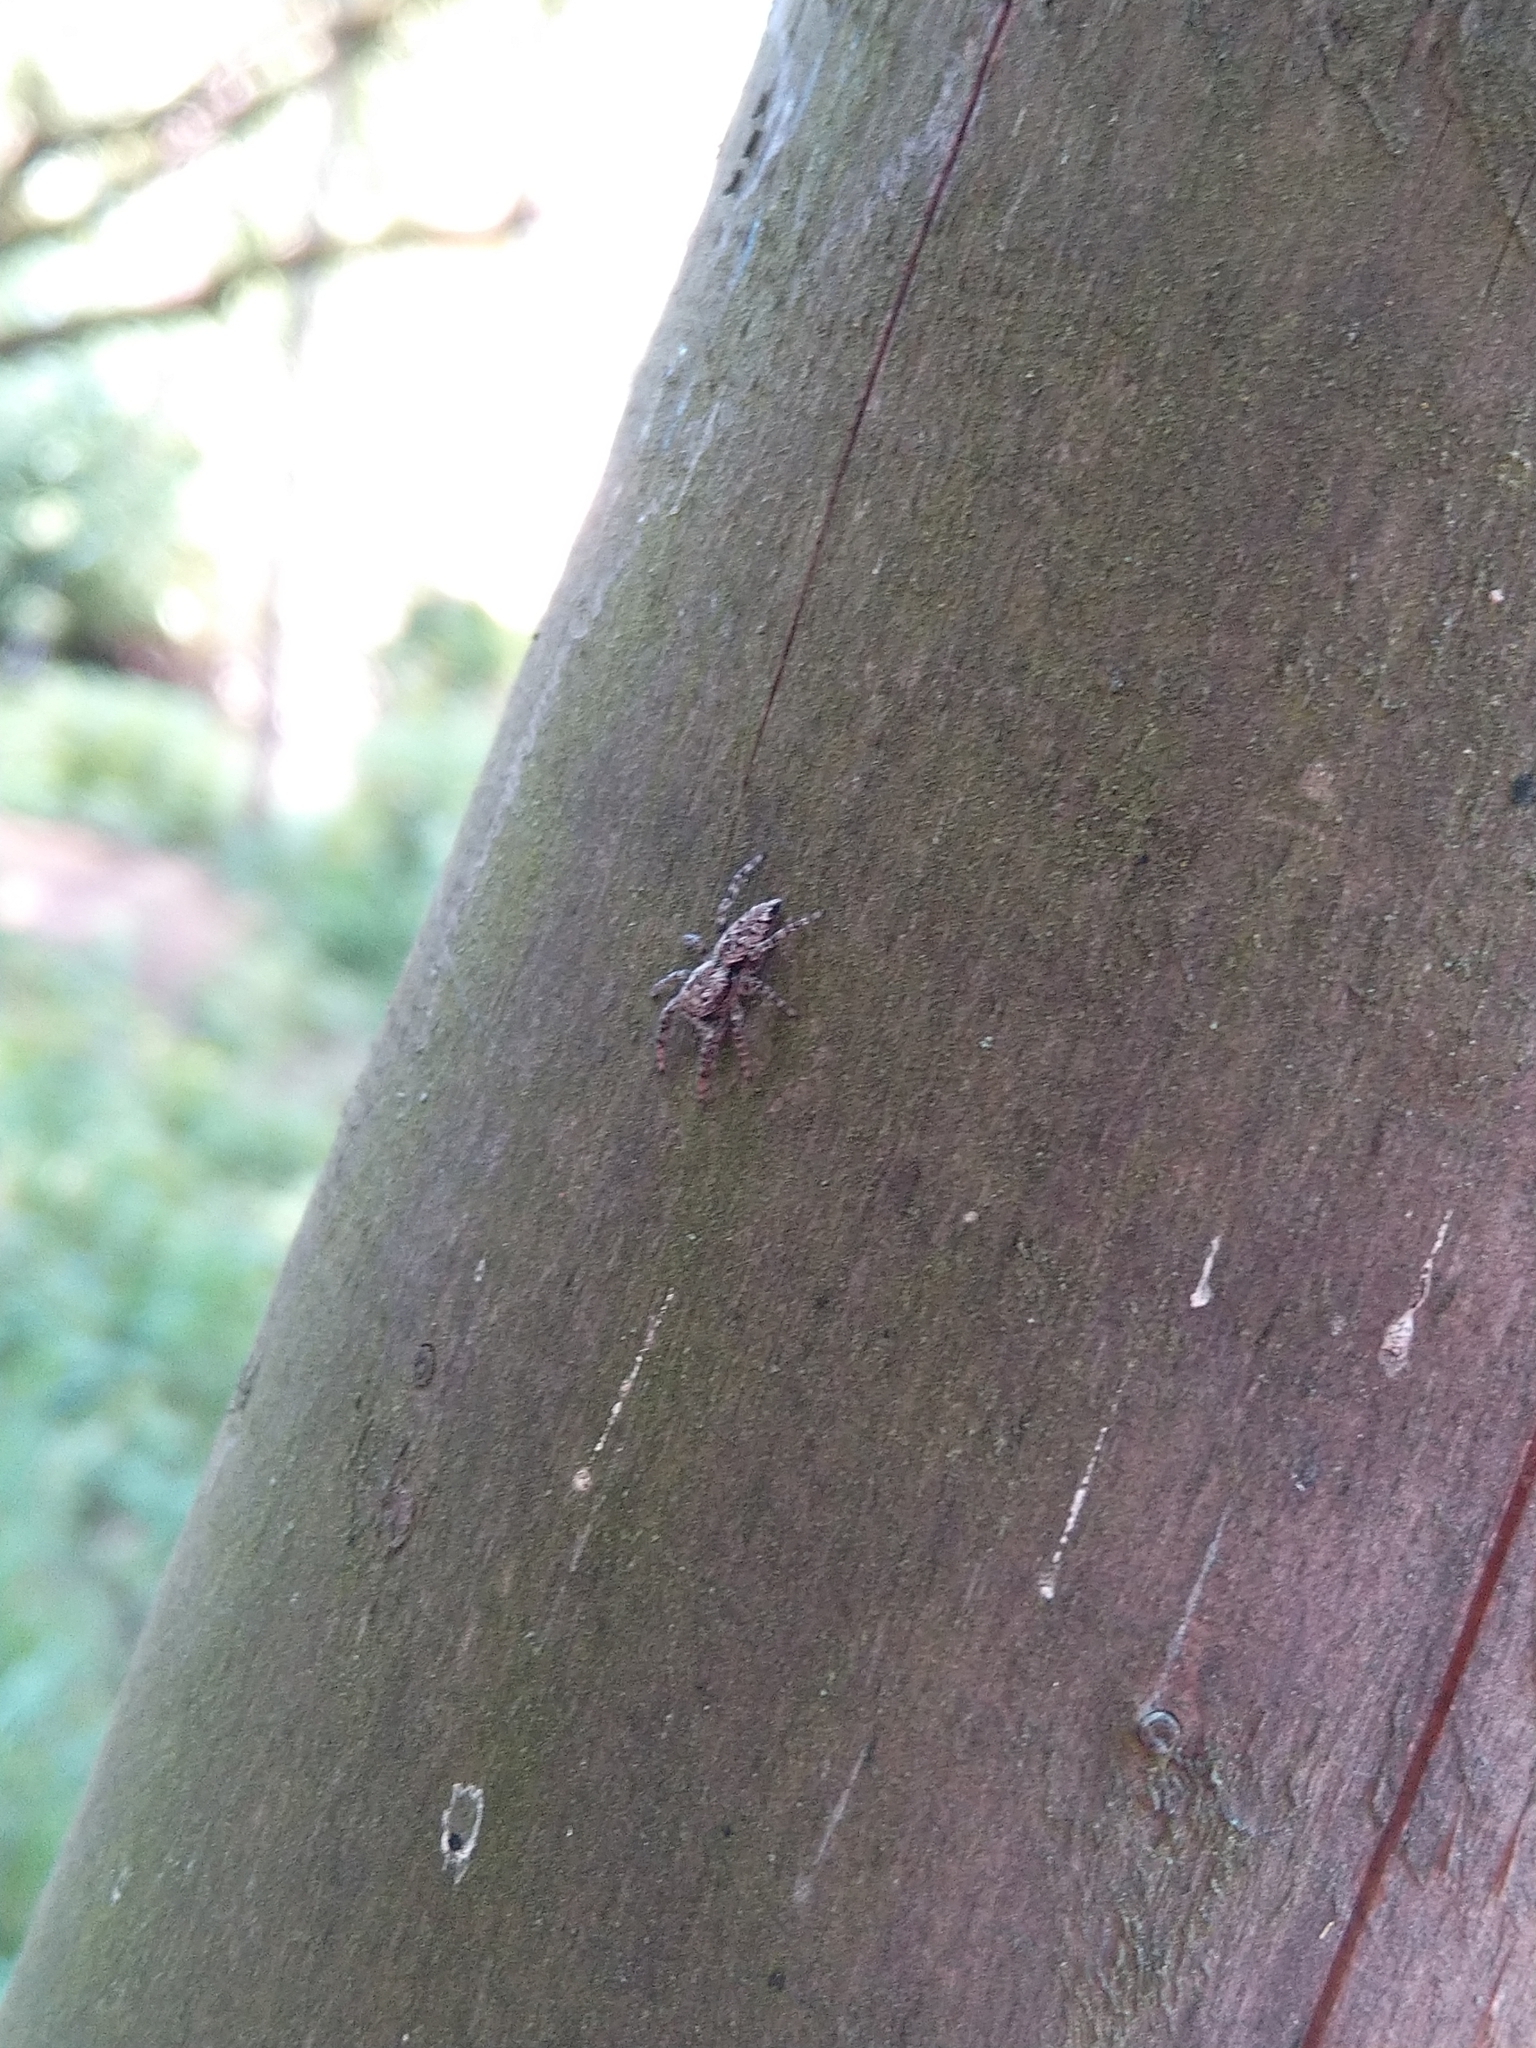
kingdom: Animalia
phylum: Arthropoda
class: Arachnida
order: Araneae
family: Salticidae
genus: Marpissa
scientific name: Marpissa muscosa
